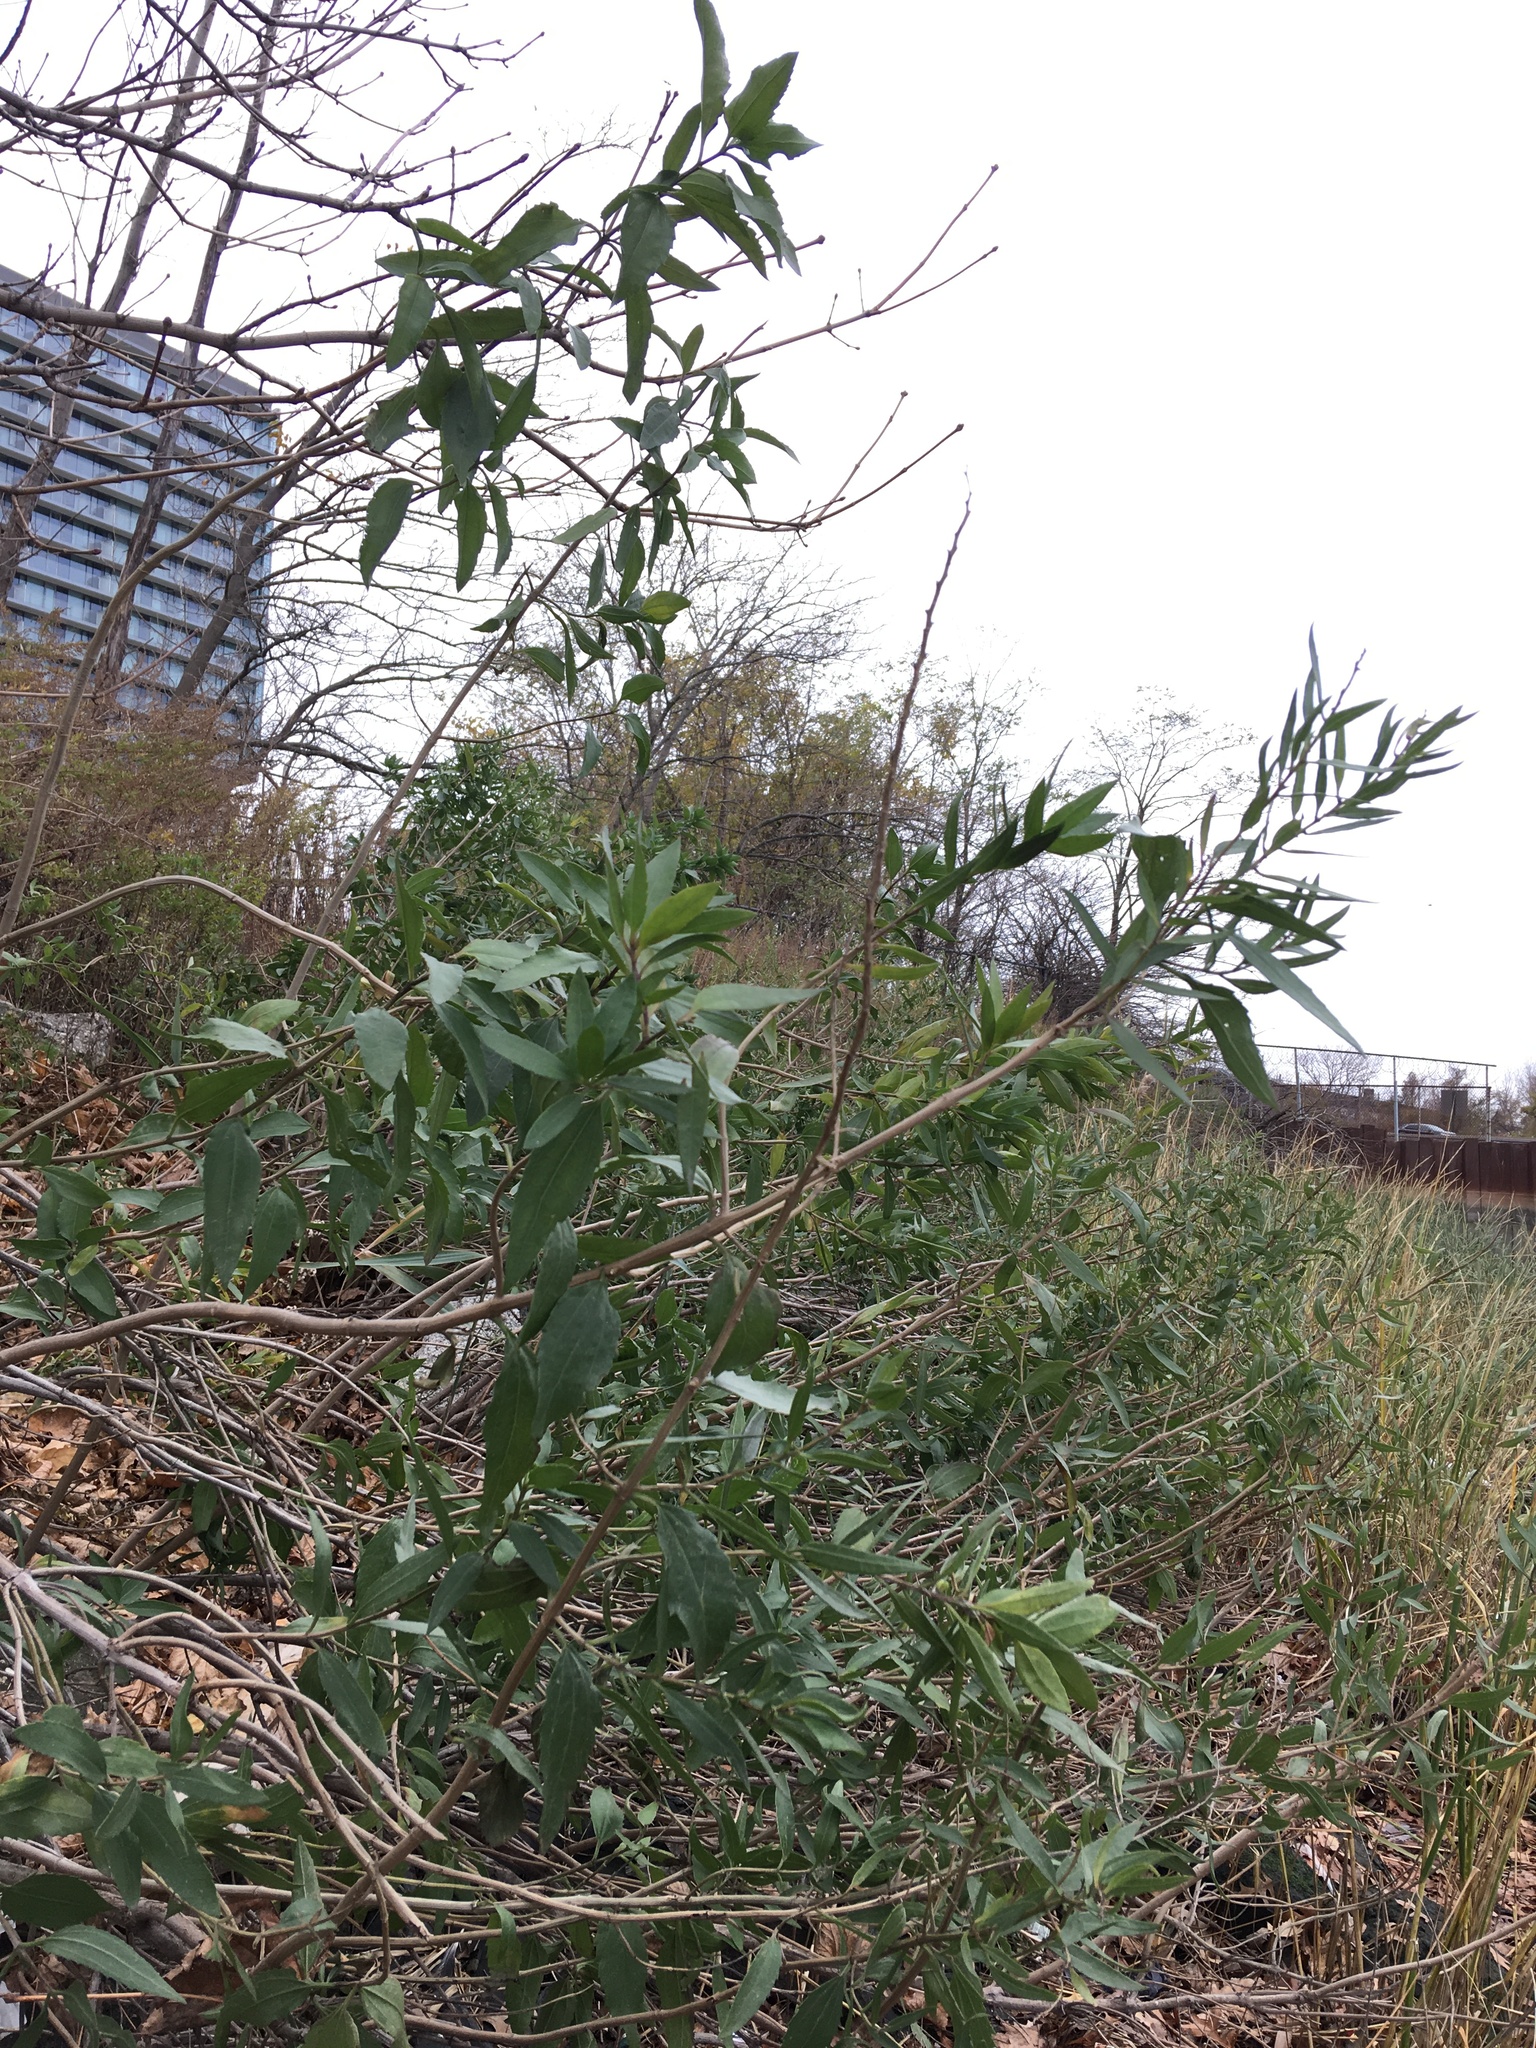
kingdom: Plantae
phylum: Tracheophyta
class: Magnoliopsida
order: Asterales
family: Asteraceae
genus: Iva
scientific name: Iva frutescens
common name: Big-leaved marsh-elder
